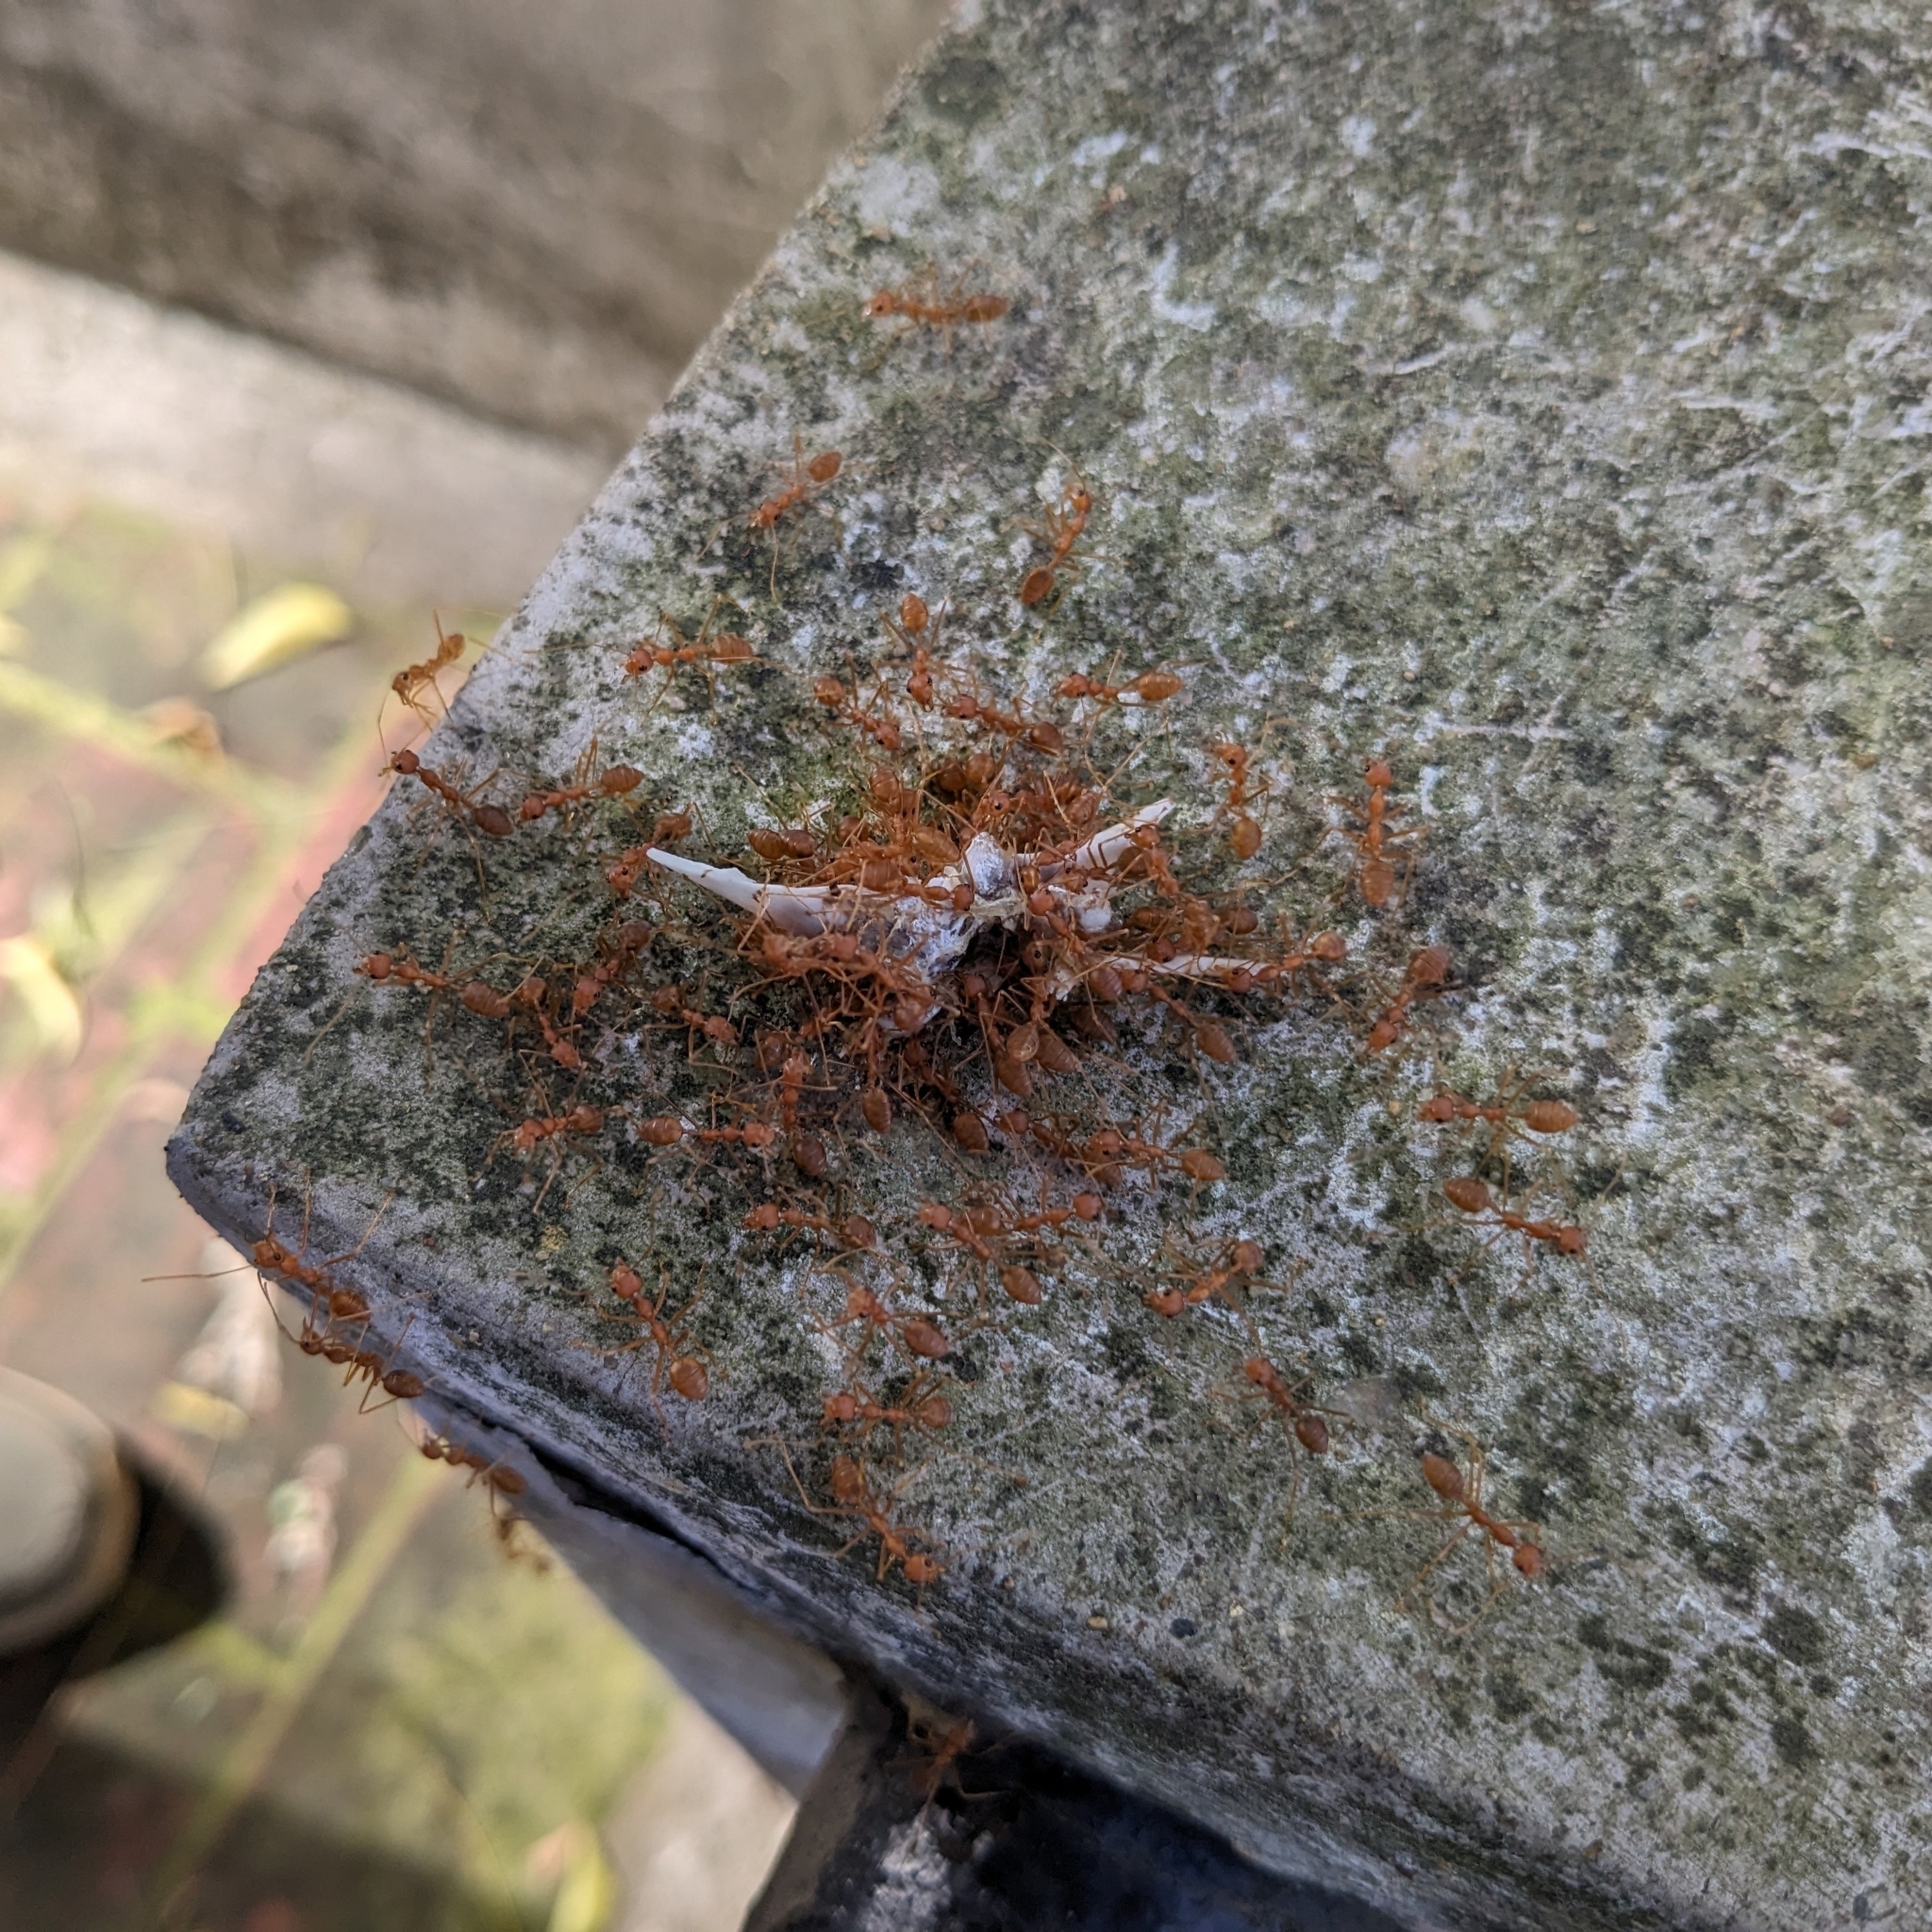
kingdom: Animalia
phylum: Arthropoda
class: Insecta
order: Hymenoptera
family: Formicidae
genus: Oecophylla
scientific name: Oecophylla smaragdina
